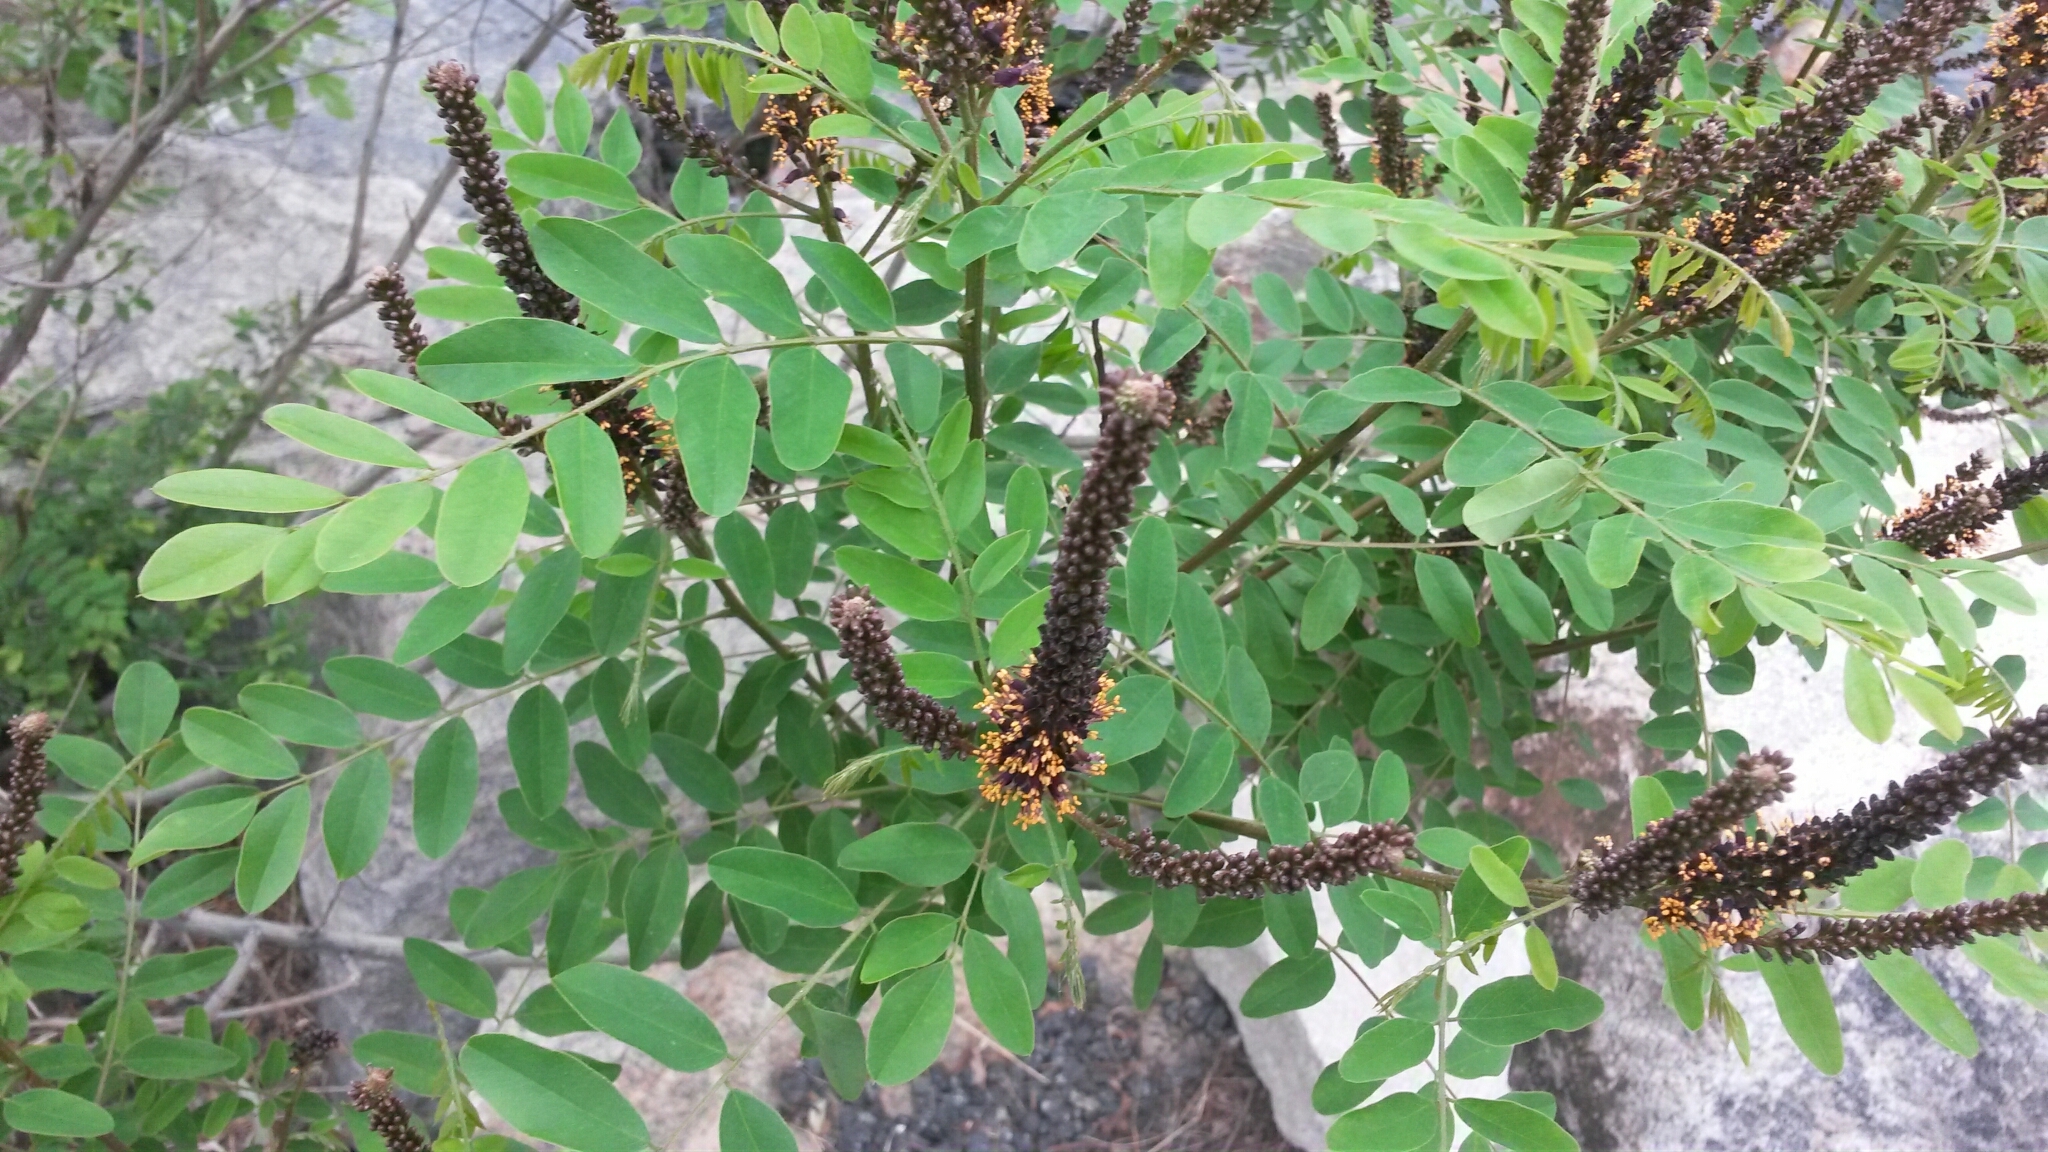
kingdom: Plantae
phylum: Tracheophyta
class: Magnoliopsida
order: Fabales
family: Fabaceae
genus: Amorpha
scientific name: Amorpha fruticosa
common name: False indigo
